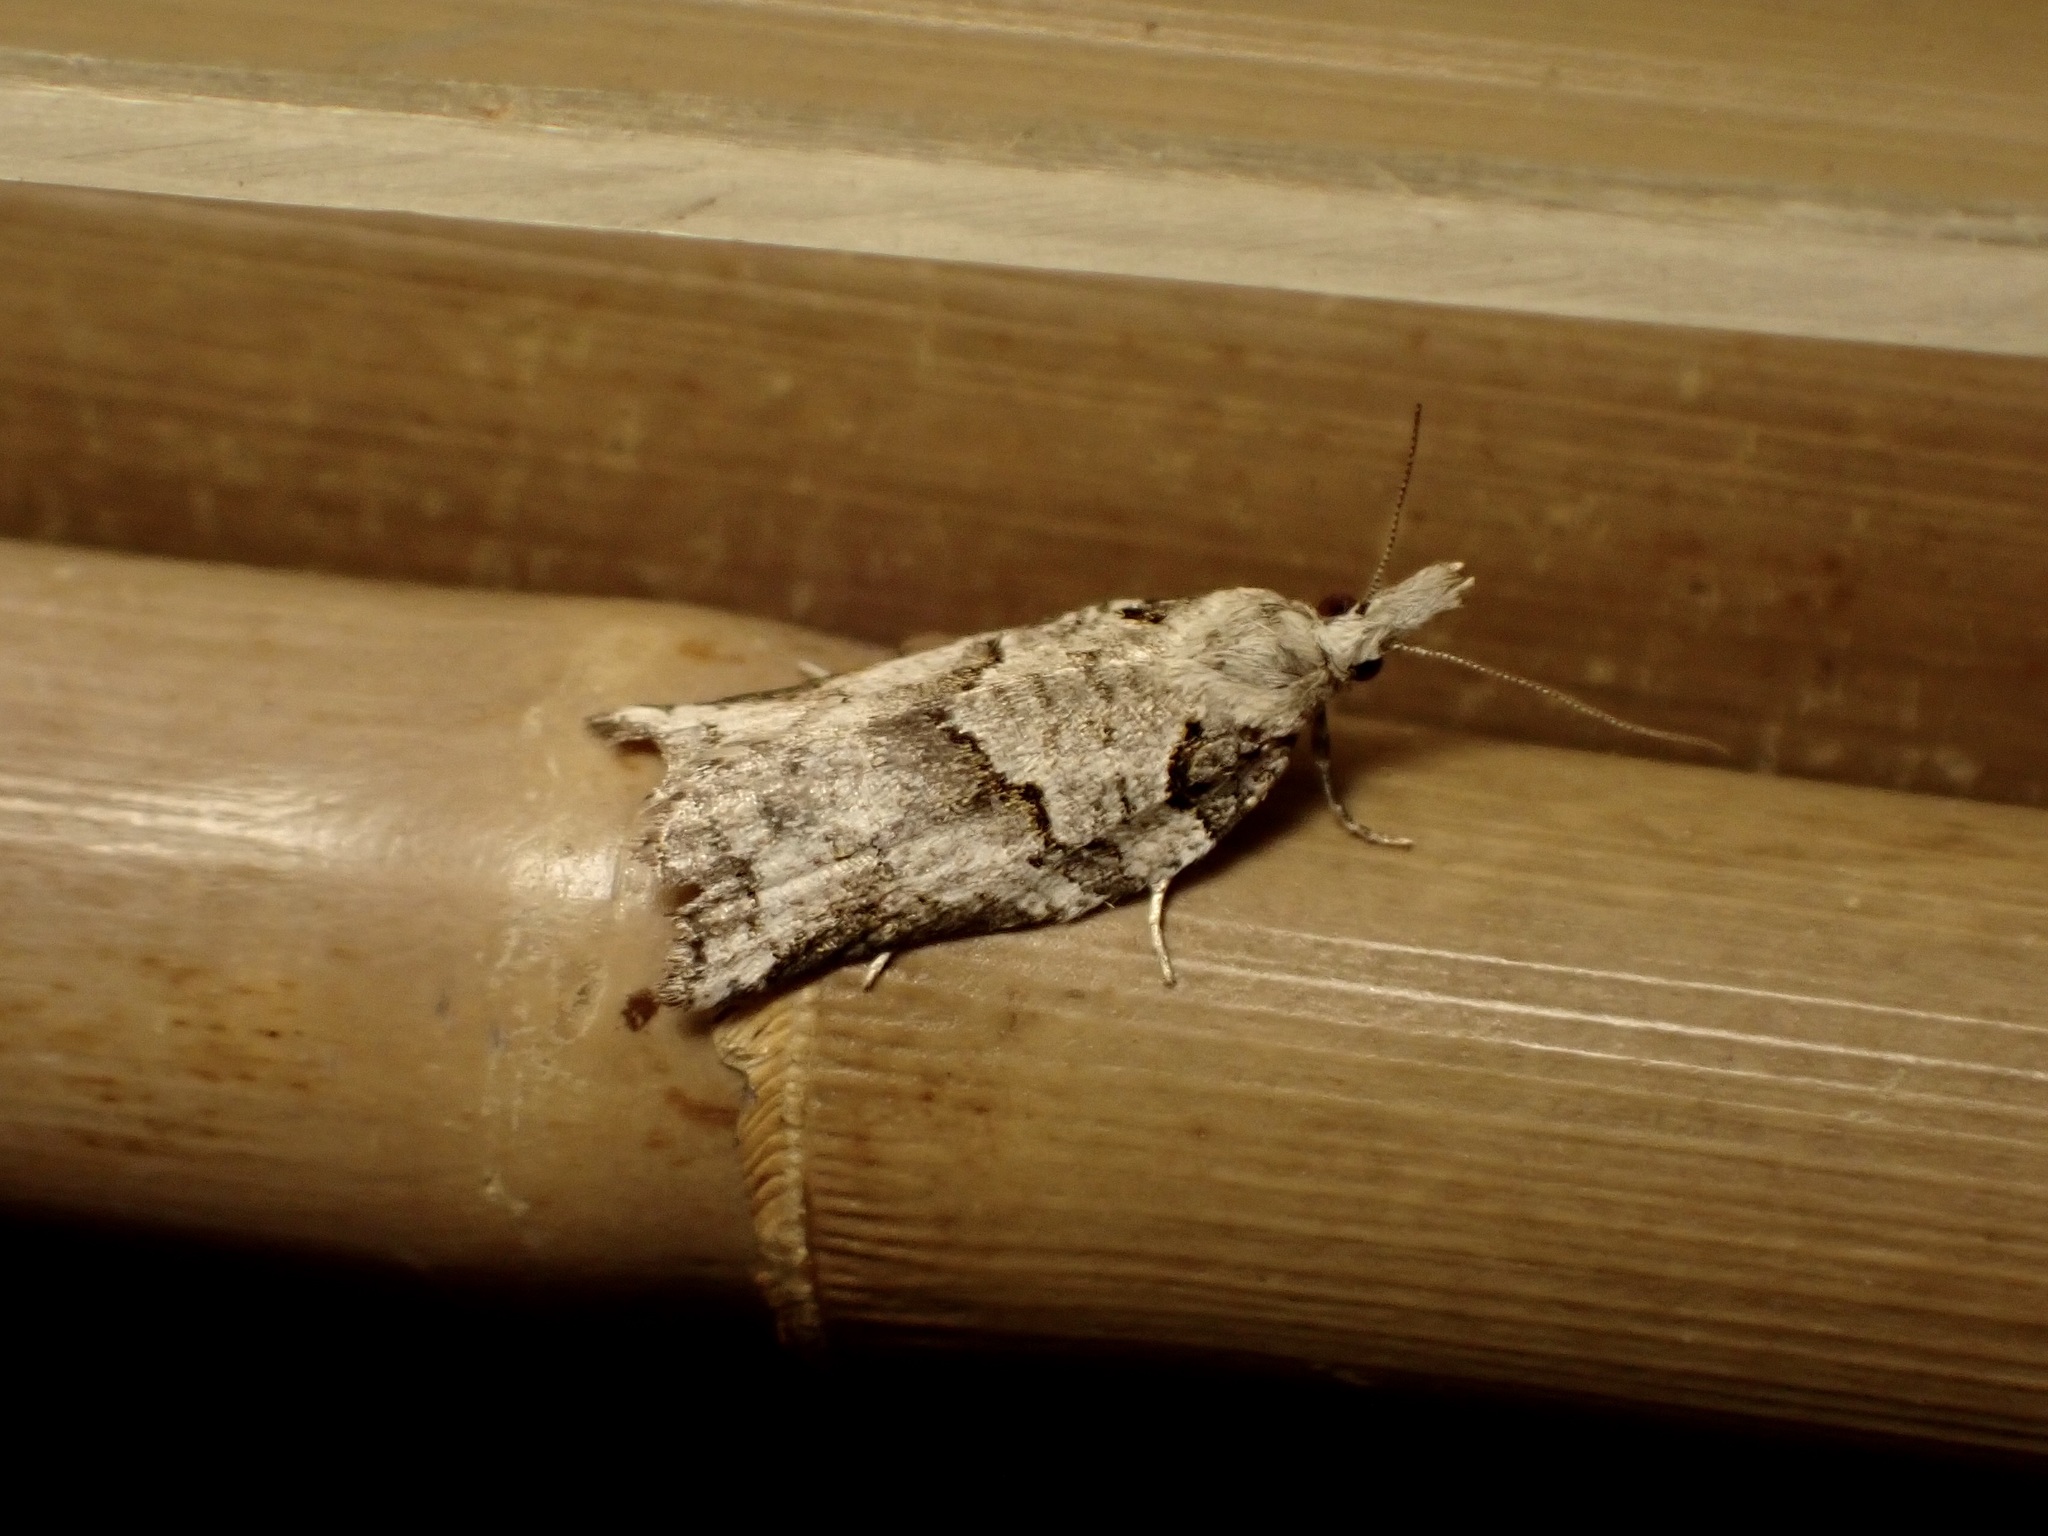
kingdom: Animalia
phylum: Arthropoda
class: Insecta
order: Lepidoptera
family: Tortricidae
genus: Harmologa
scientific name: Harmologa amplexana
